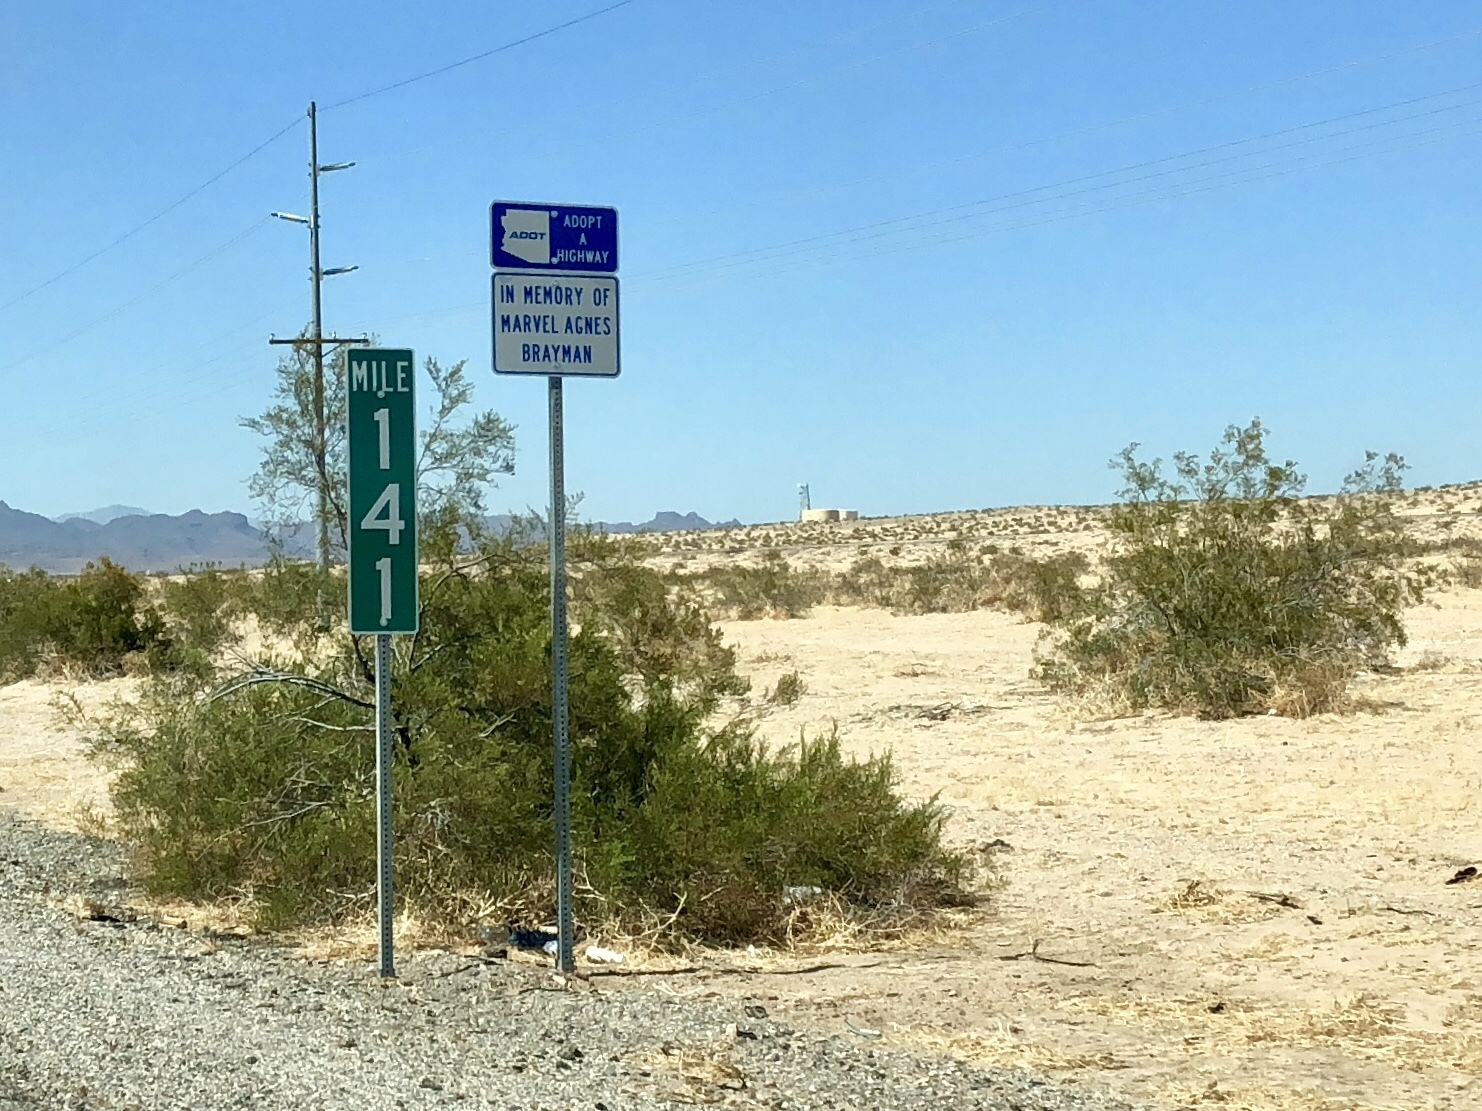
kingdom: Plantae
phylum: Tracheophyta
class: Magnoliopsida
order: Zygophyllales
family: Zygophyllaceae
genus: Larrea
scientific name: Larrea tridentata
